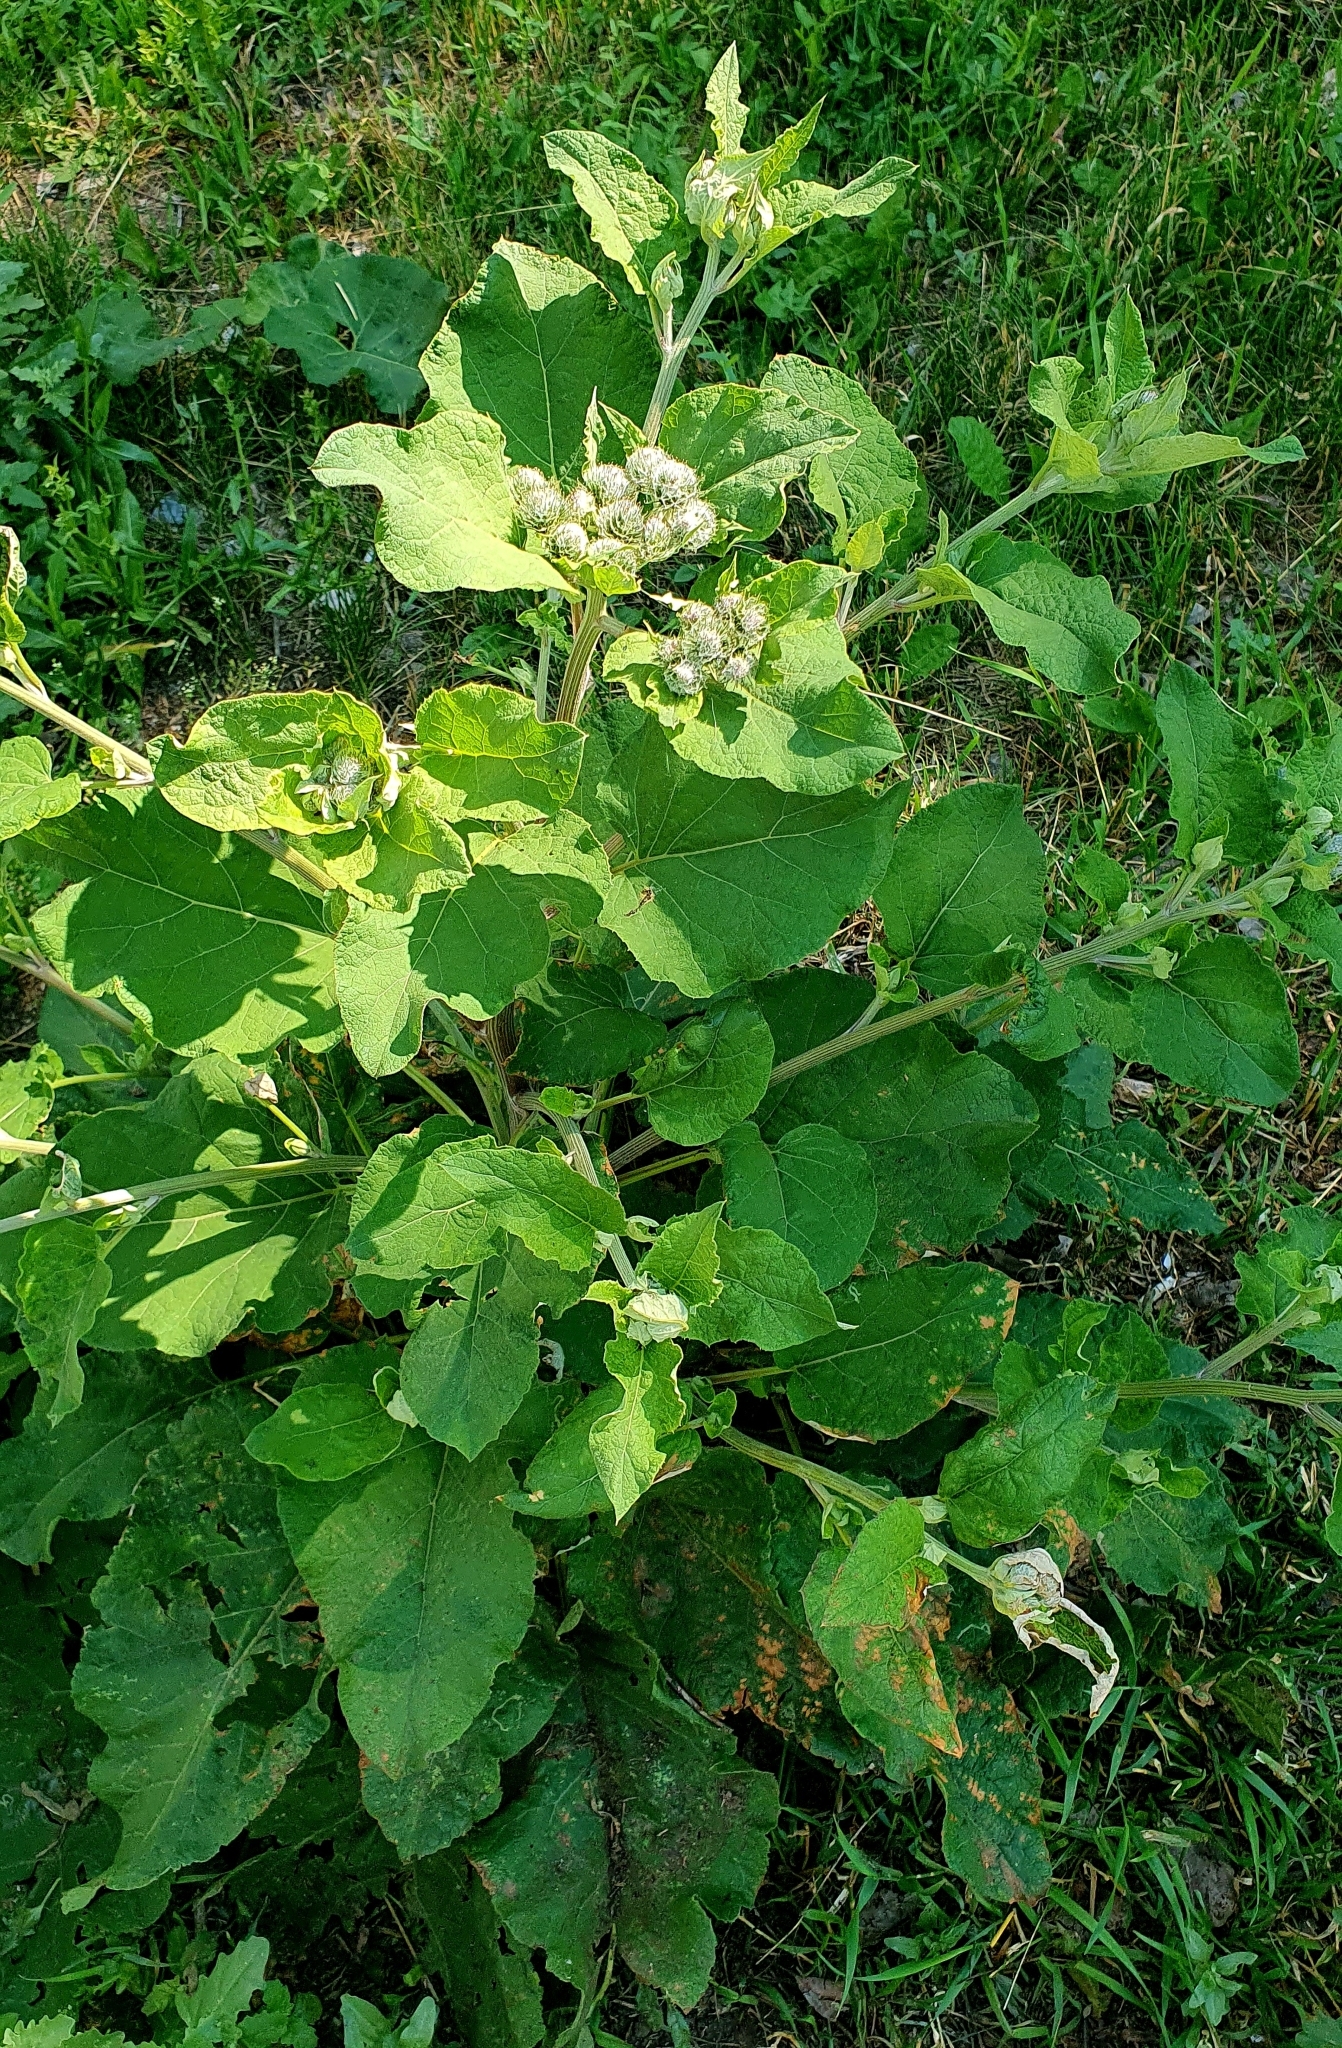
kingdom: Plantae
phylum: Tracheophyta
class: Magnoliopsida
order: Asterales
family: Asteraceae
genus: Arctium
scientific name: Arctium tomentosum
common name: Woolly burdock
